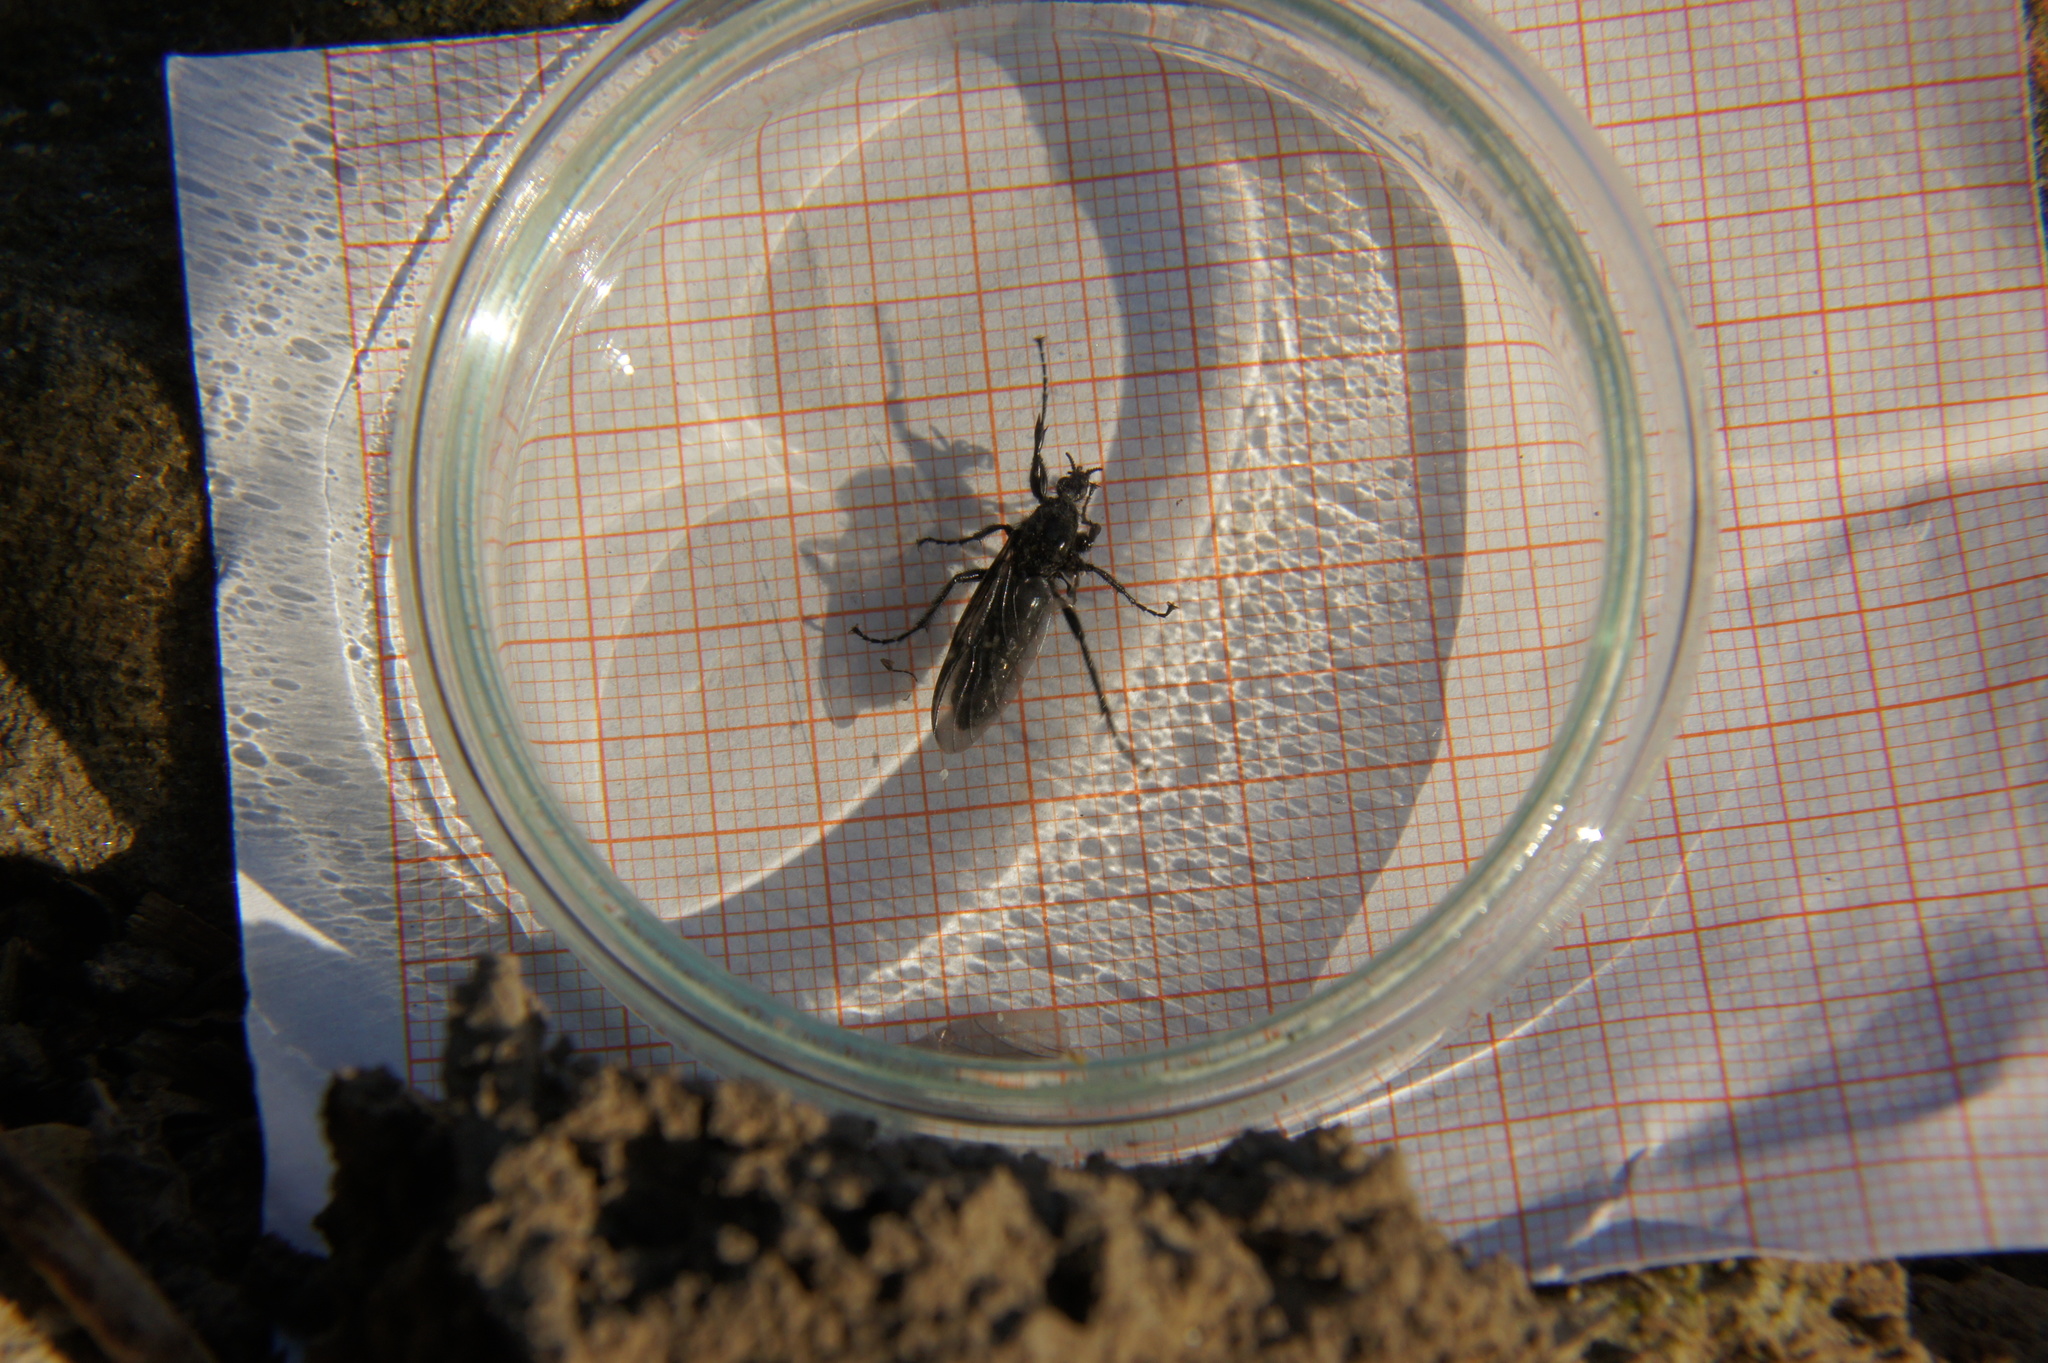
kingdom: Animalia
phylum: Arthropoda
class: Insecta
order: Diptera
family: Bibionidae
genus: Bibio
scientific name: Bibio marci
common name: St marks fly
